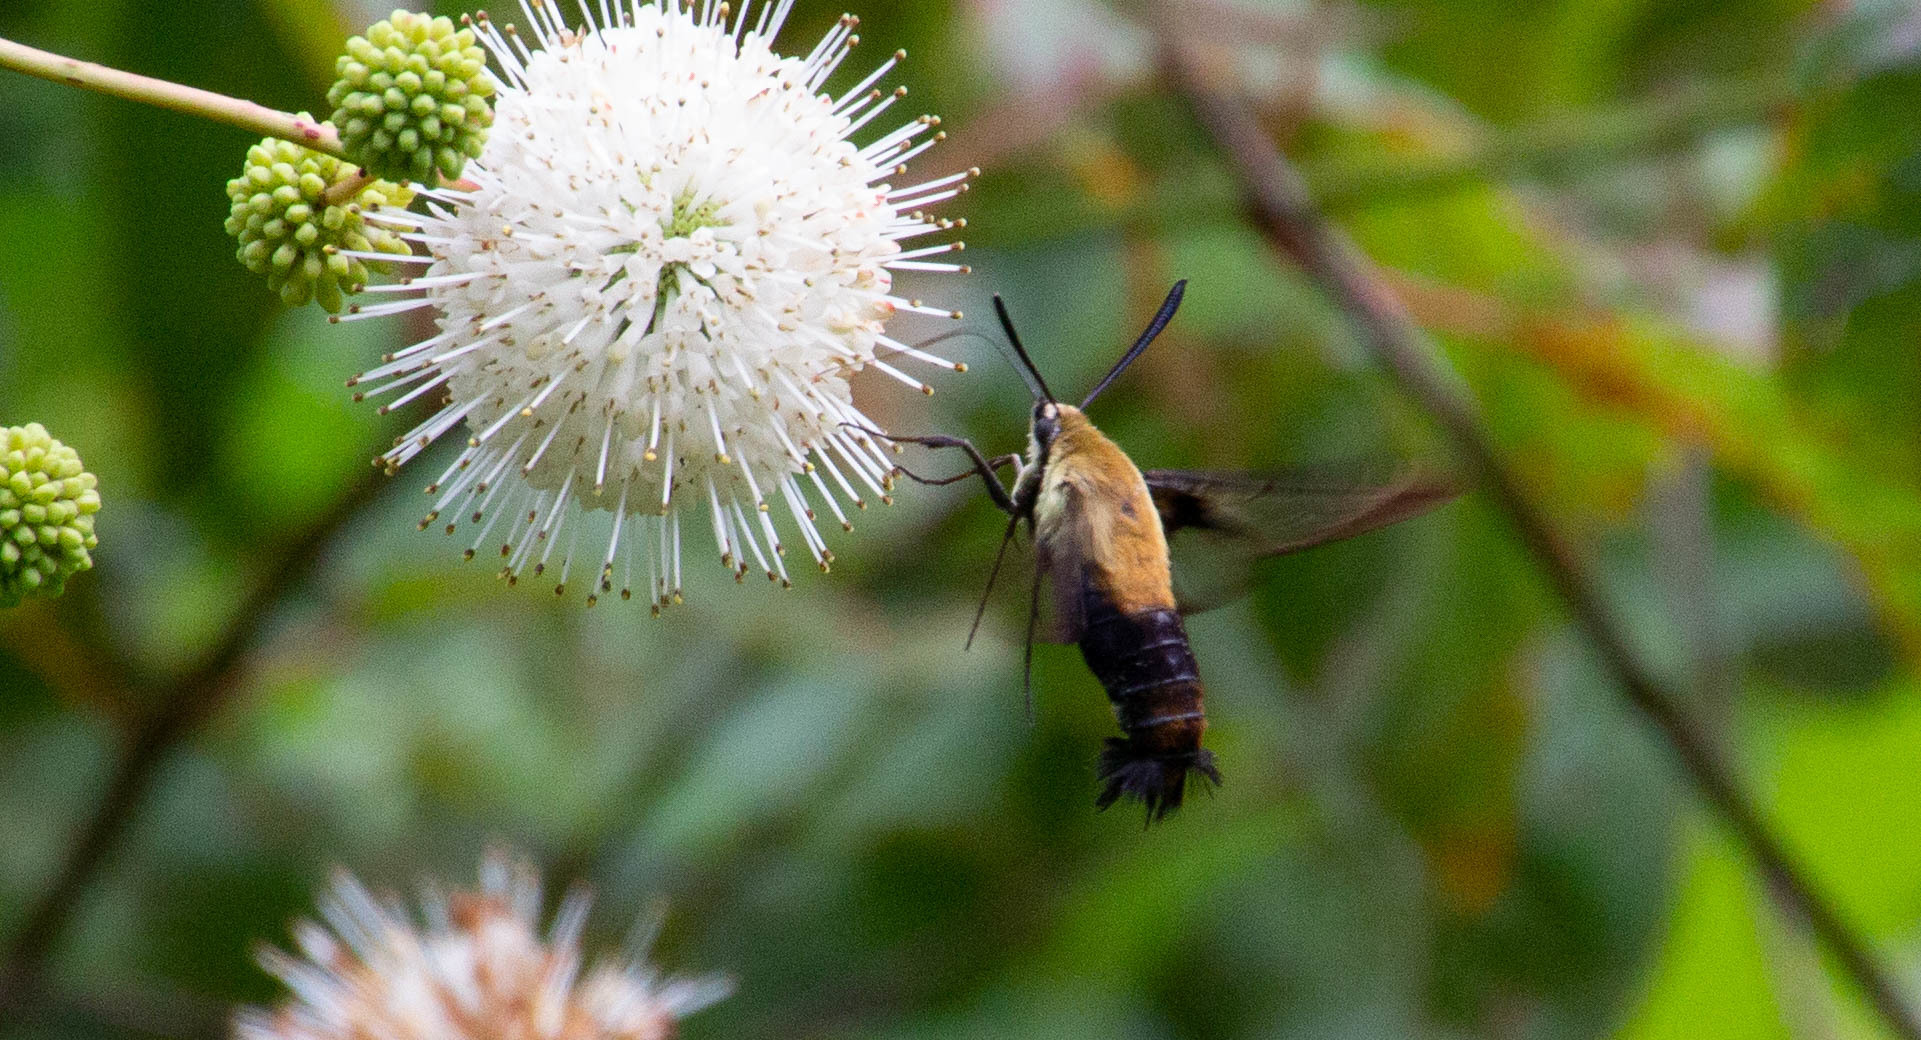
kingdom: Animalia
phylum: Arthropoda
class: Insecta
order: Lepidoptera
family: Sphingidae
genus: Hemaris
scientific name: Hemaris diffinis
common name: Bumblebee moth
